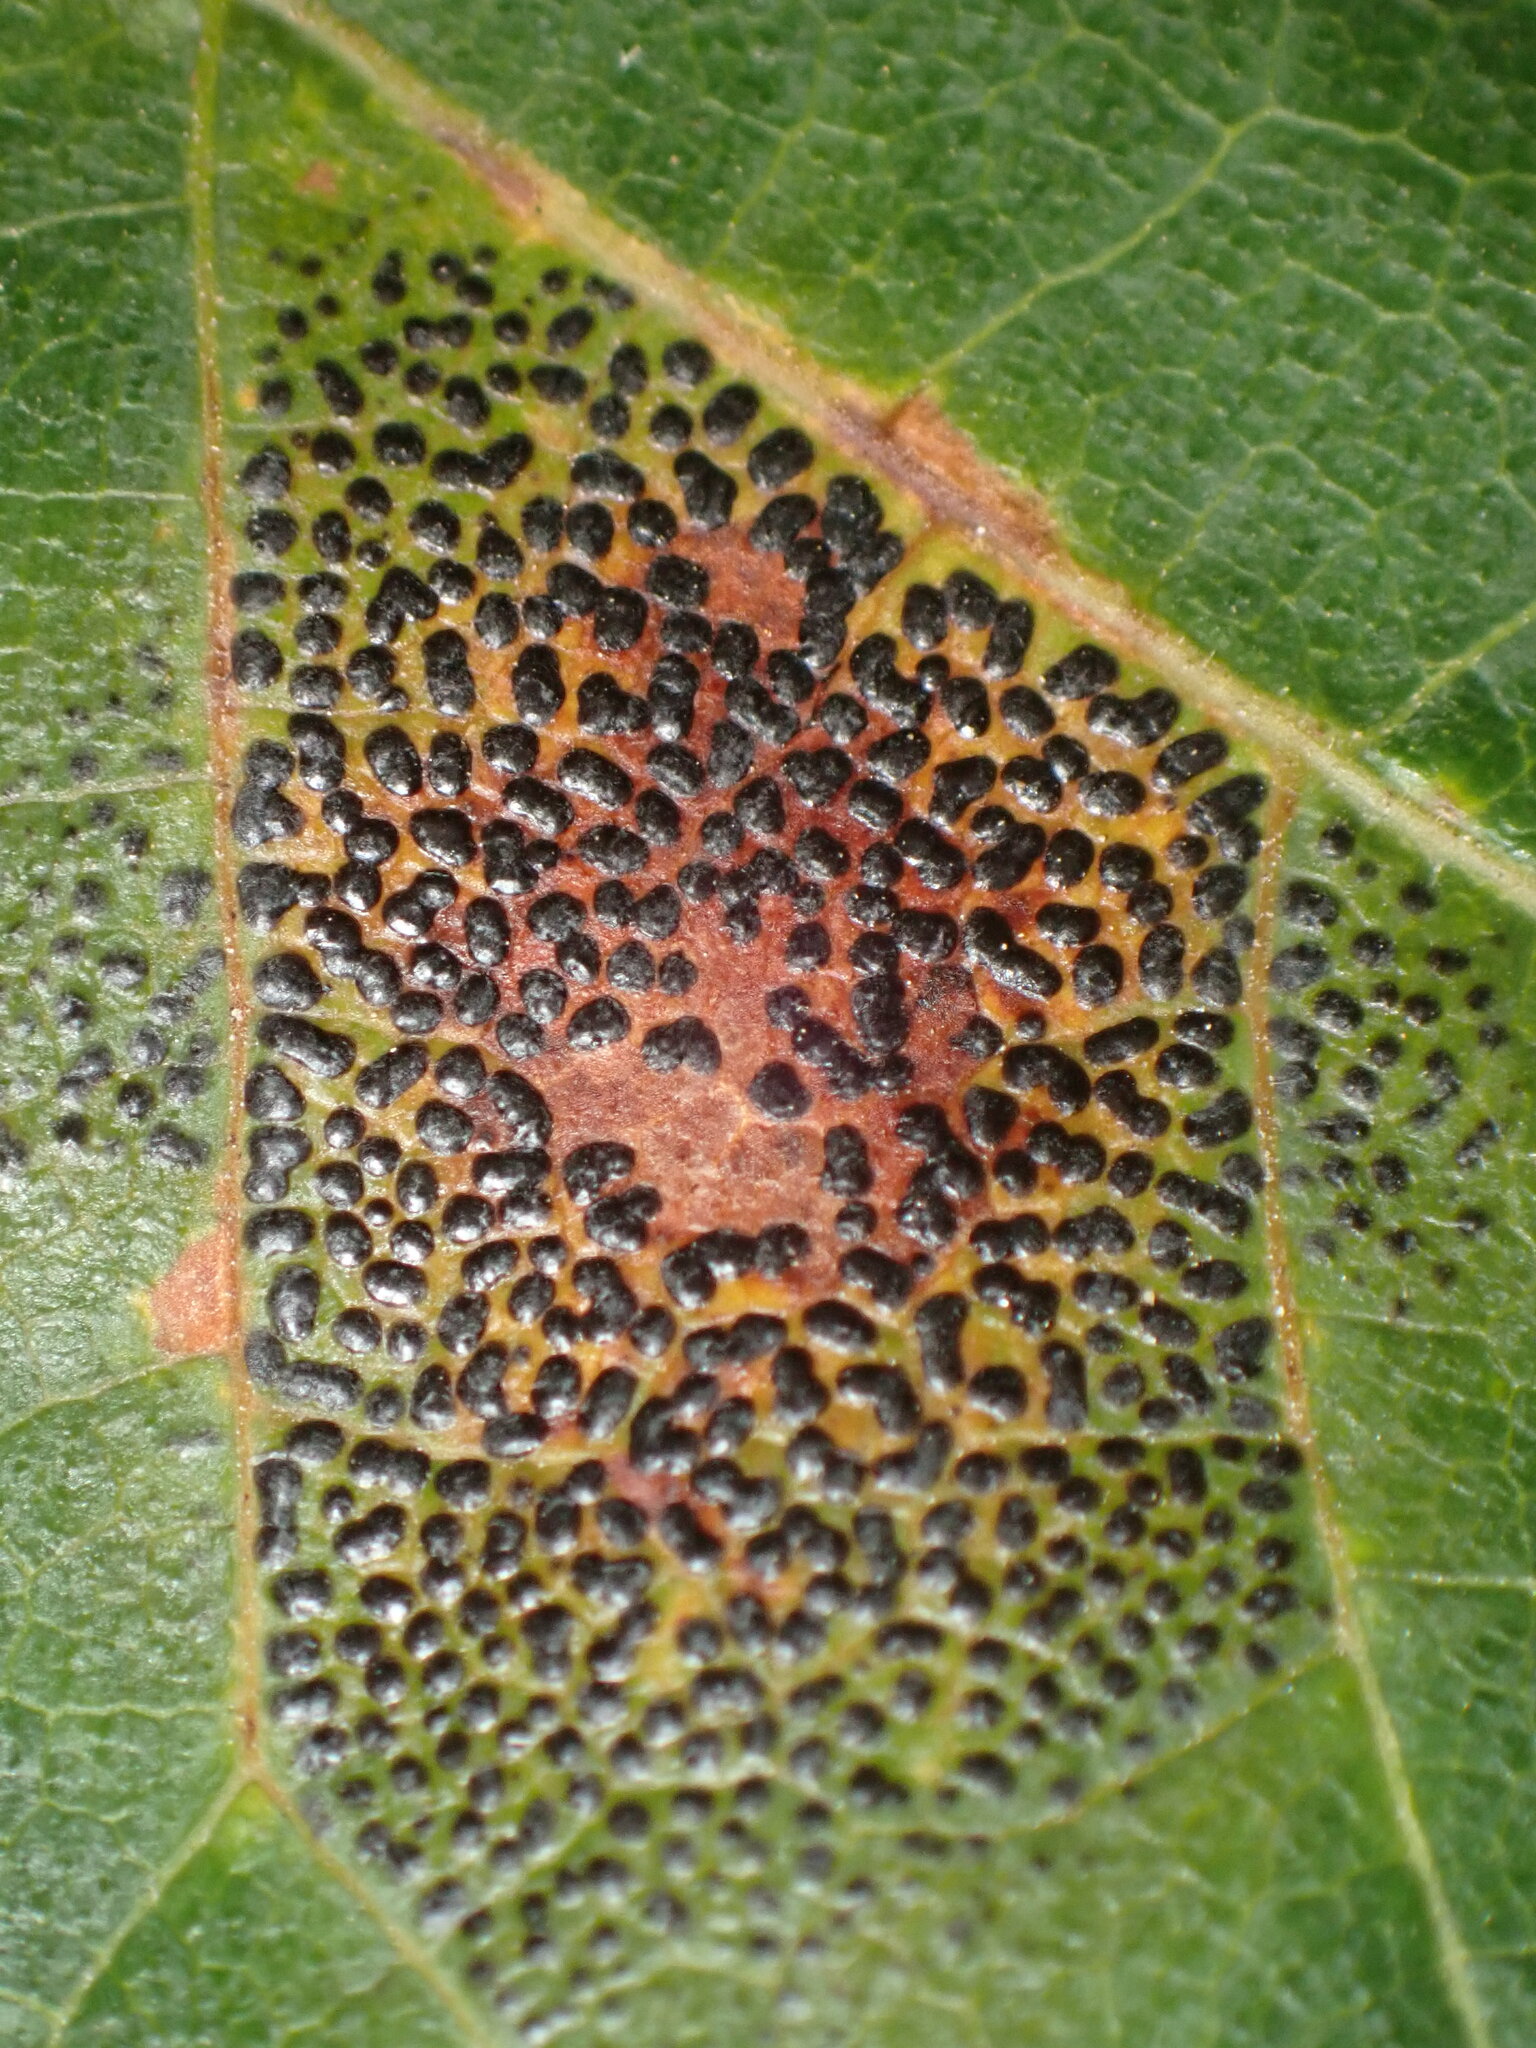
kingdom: Fungi
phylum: Ascomycota
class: Leotiomycetes
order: Rhytismatales
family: Rhytismataceae
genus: Rhytisma
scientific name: Rhytisma punctatum
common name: Speckled tar spot
